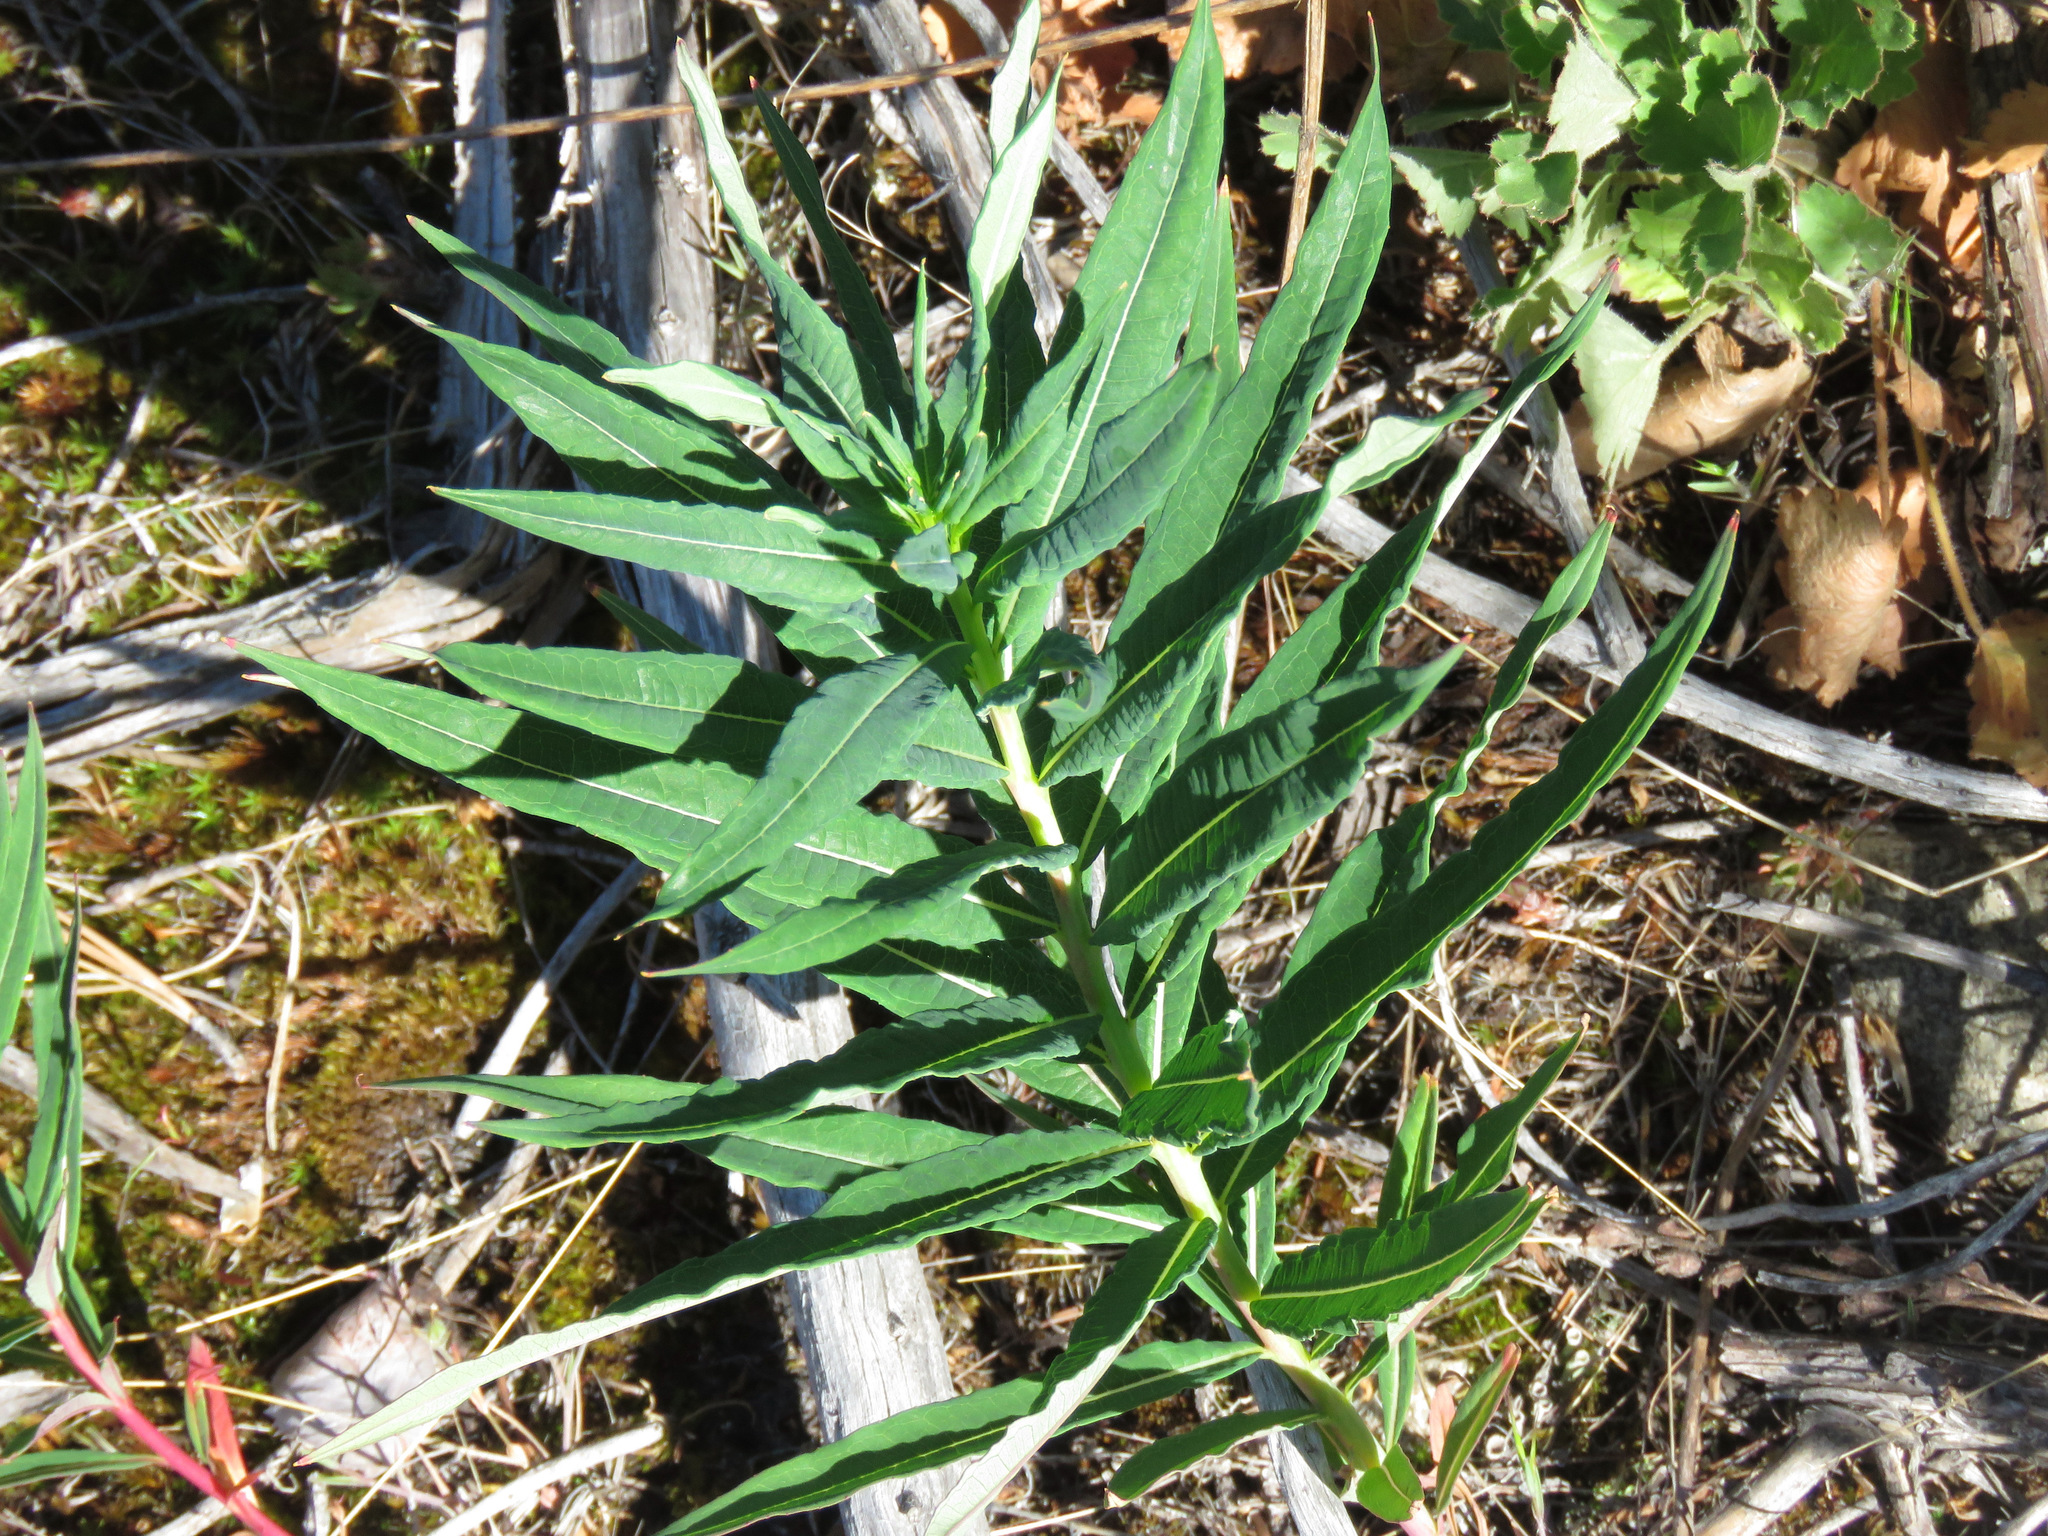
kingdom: Plantae
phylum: Tracheophyta
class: Magnoliopsida
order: Myrtales
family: Onagraceae
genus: Chamaenerion
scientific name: Chamaenerion angustifolium
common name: Fireweed
